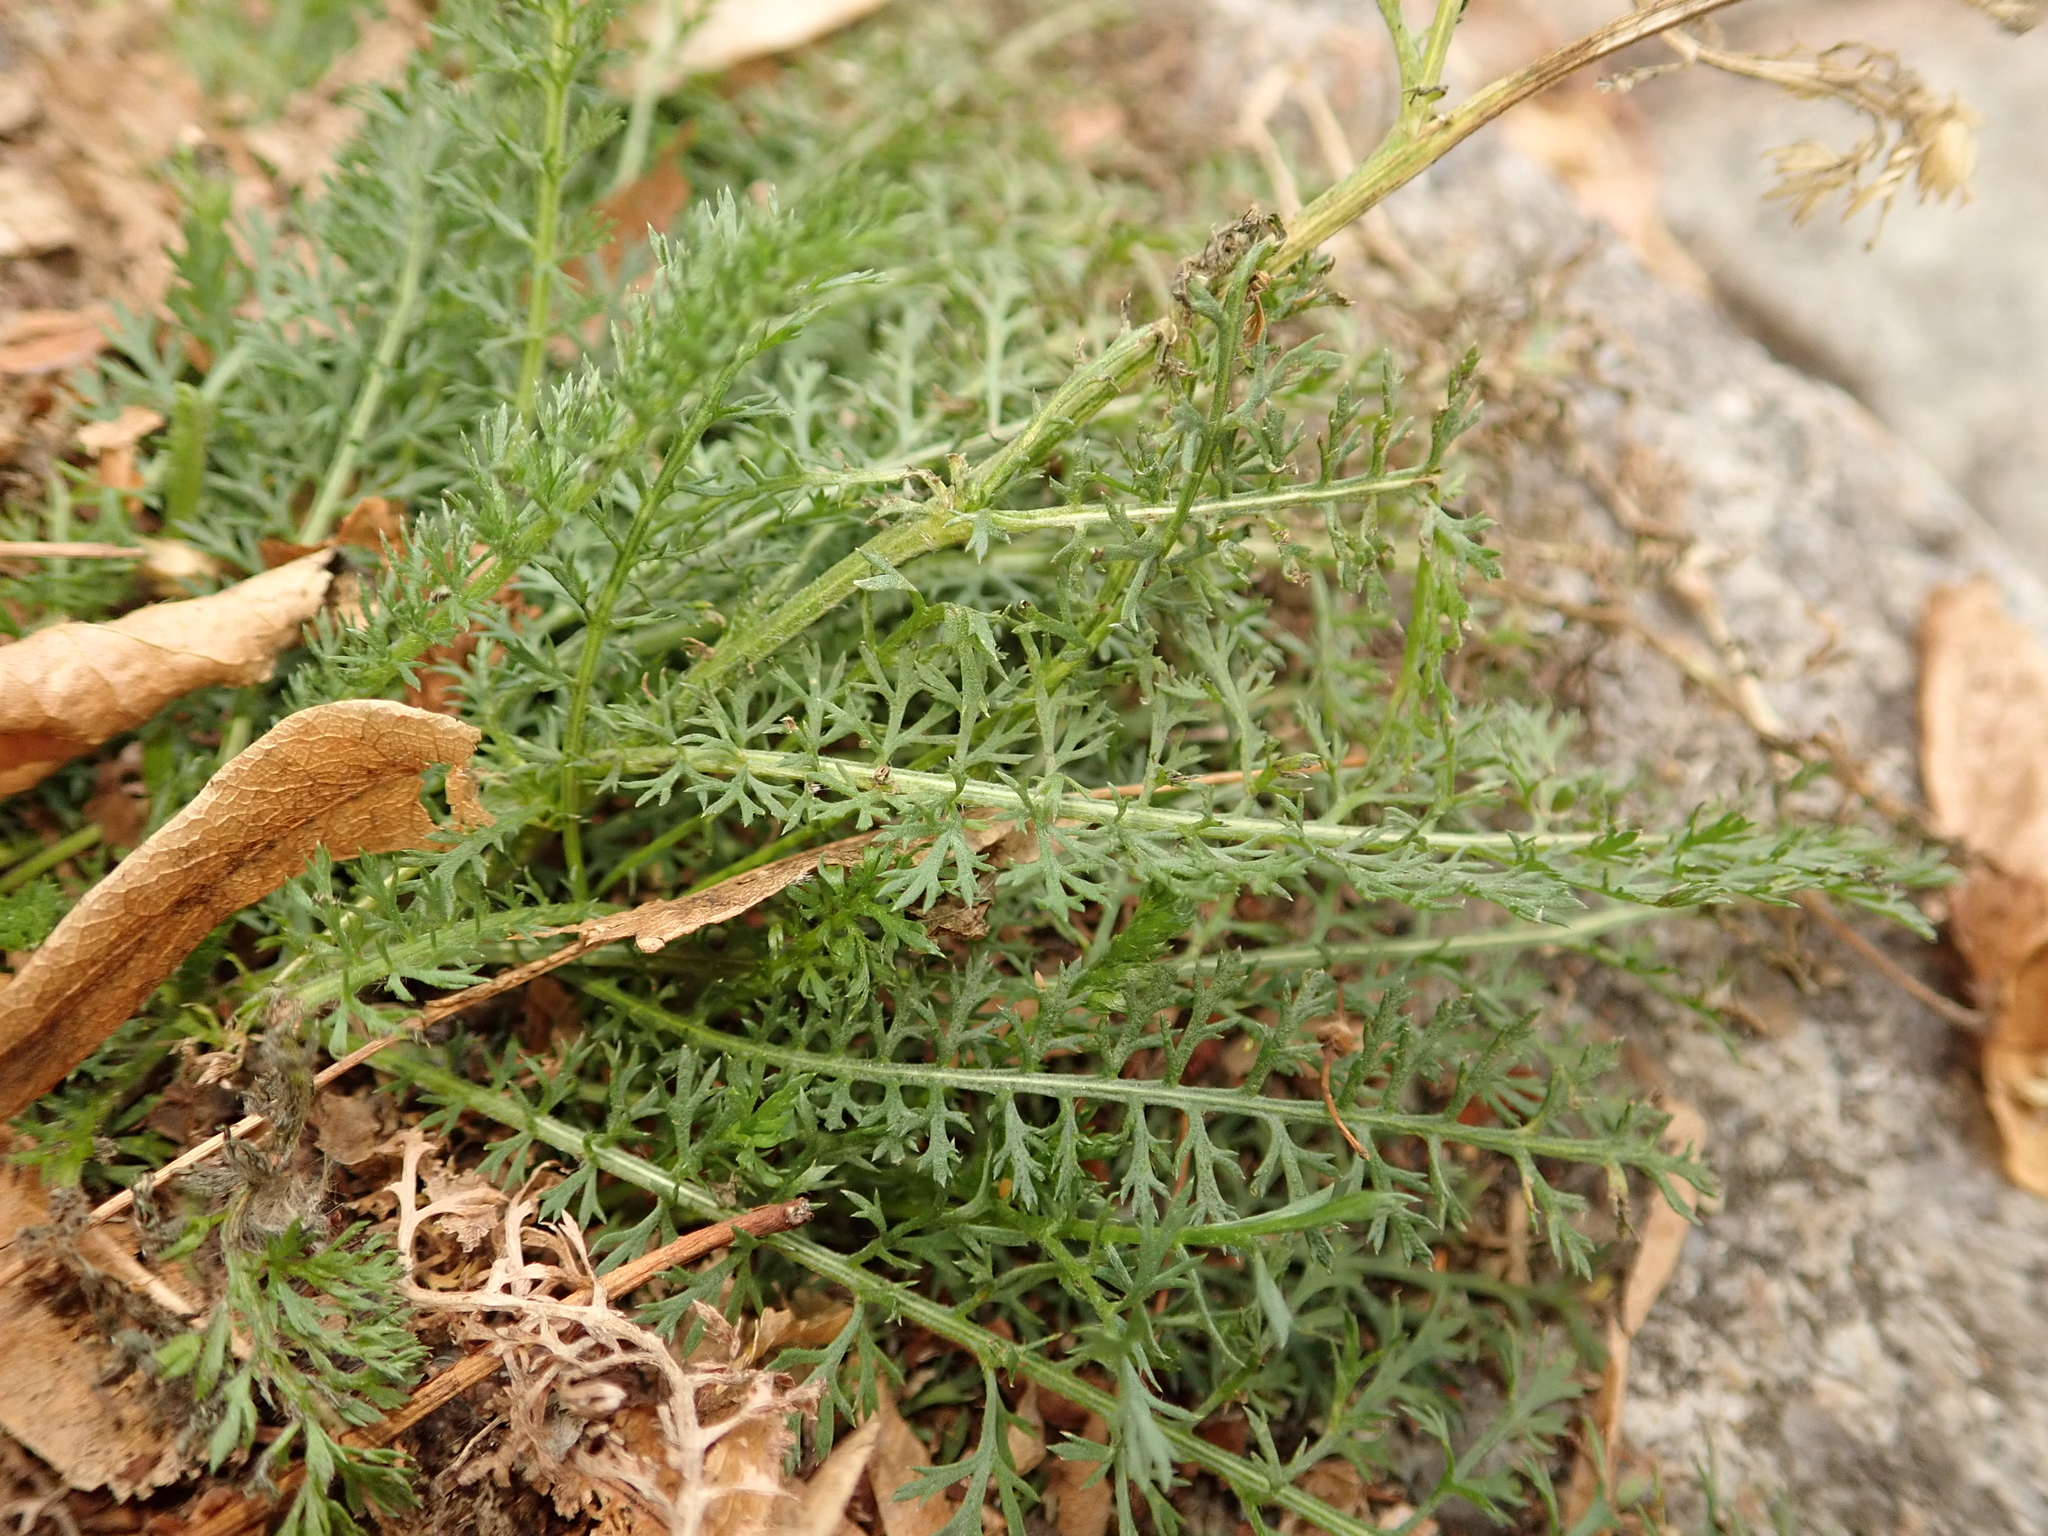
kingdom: Plantae
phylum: Tracheophyta
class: Magnoliopsida
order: Asterales
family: Asteraceae
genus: Achillea
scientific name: Achillea millefolium
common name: Yarrow
